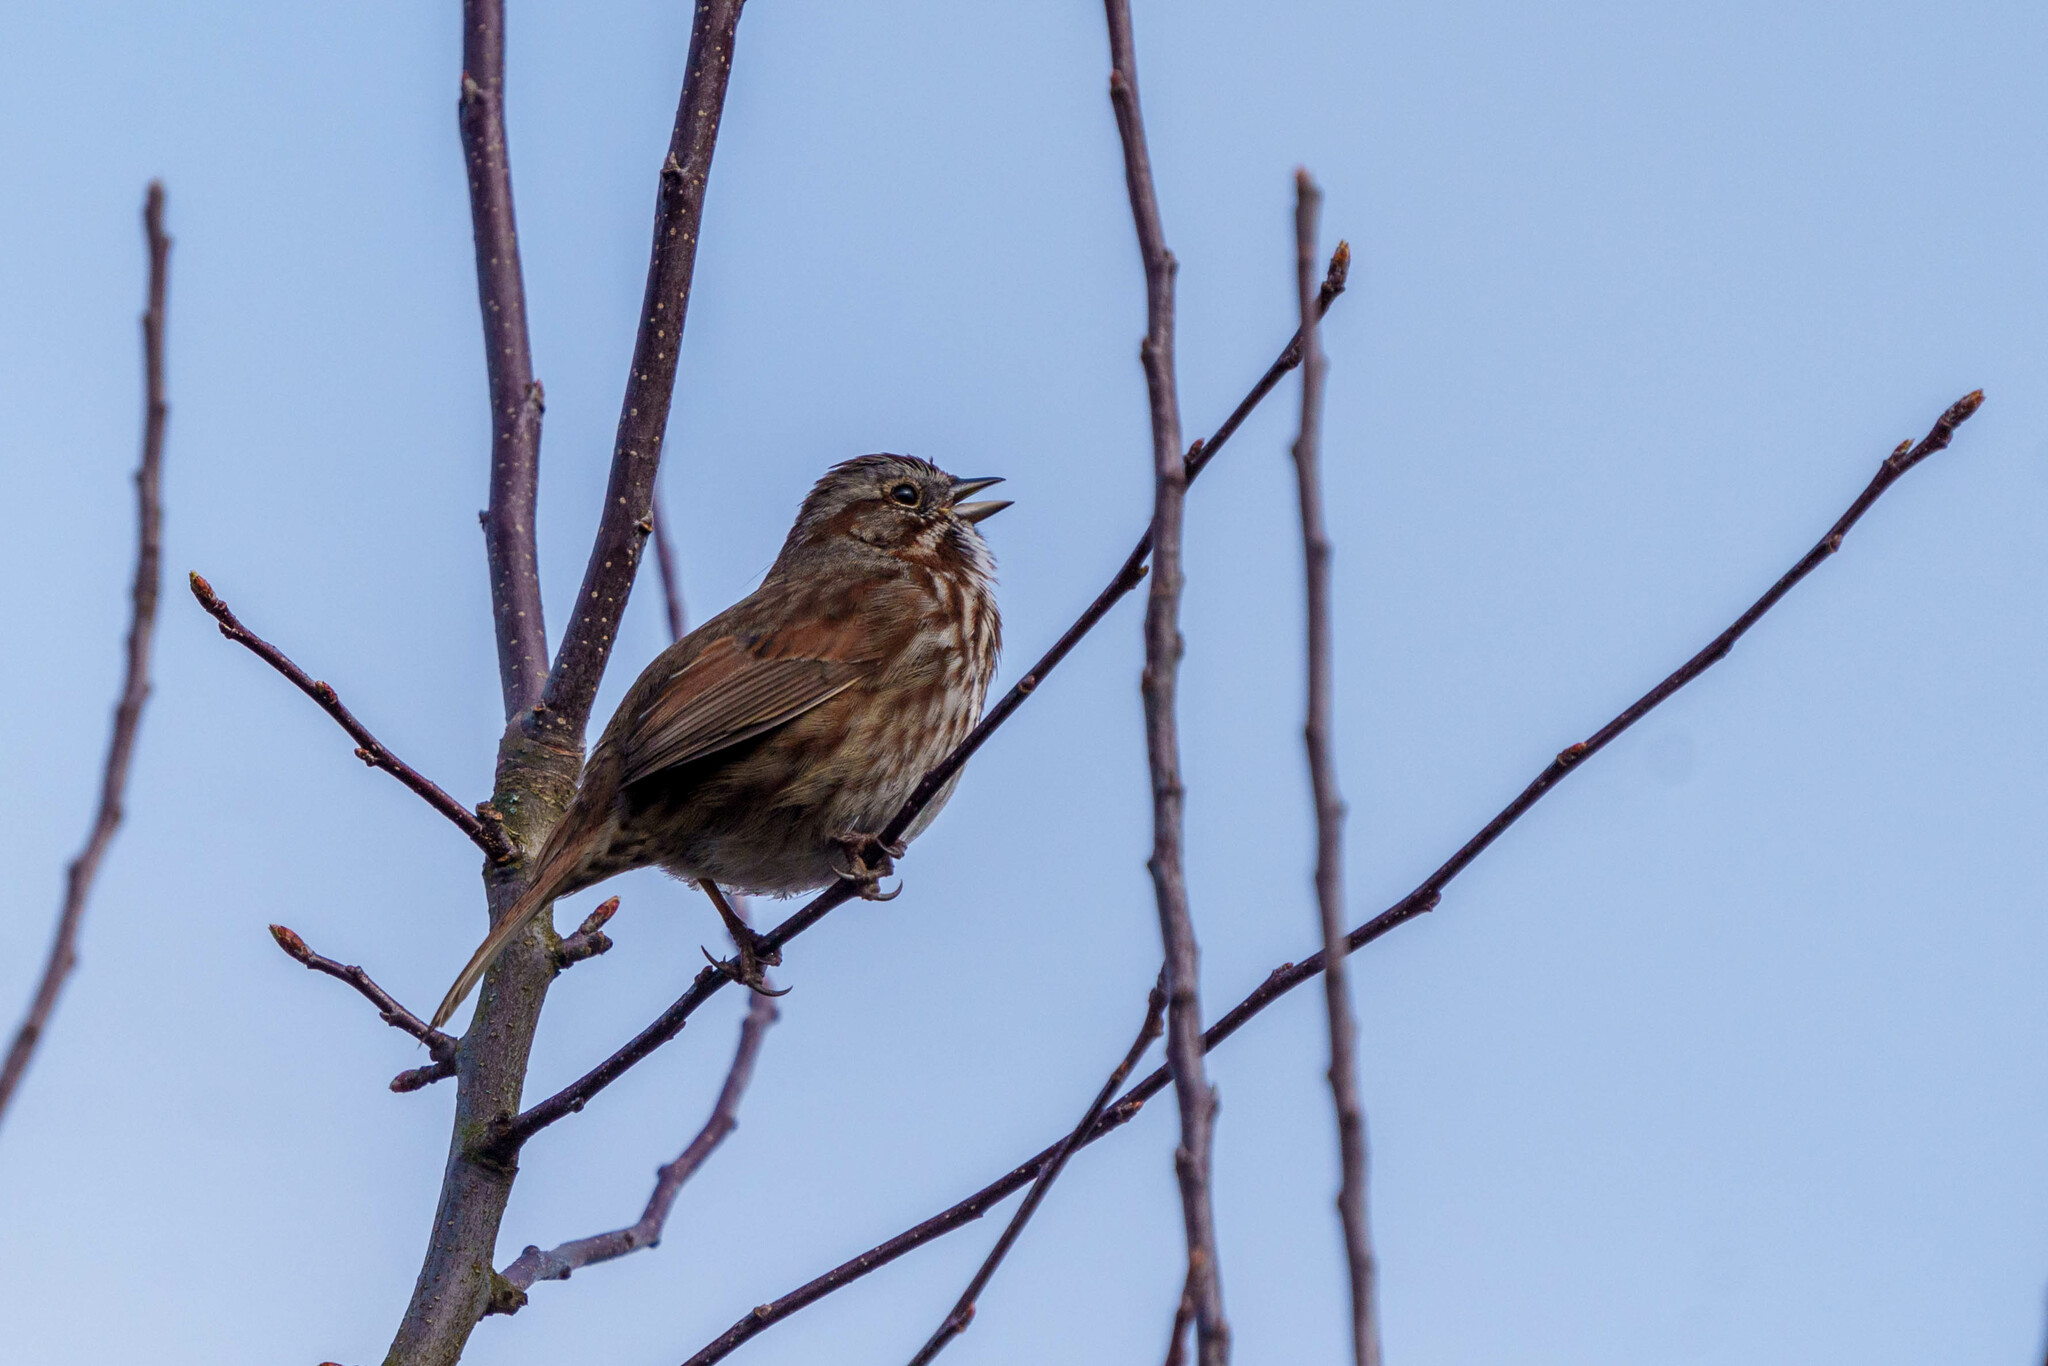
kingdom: Animalia
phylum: Chordata
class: Aves
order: Passeriformes
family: Passerellidae
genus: Melospiza
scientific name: Melospiza melodia
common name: Song sparrow
